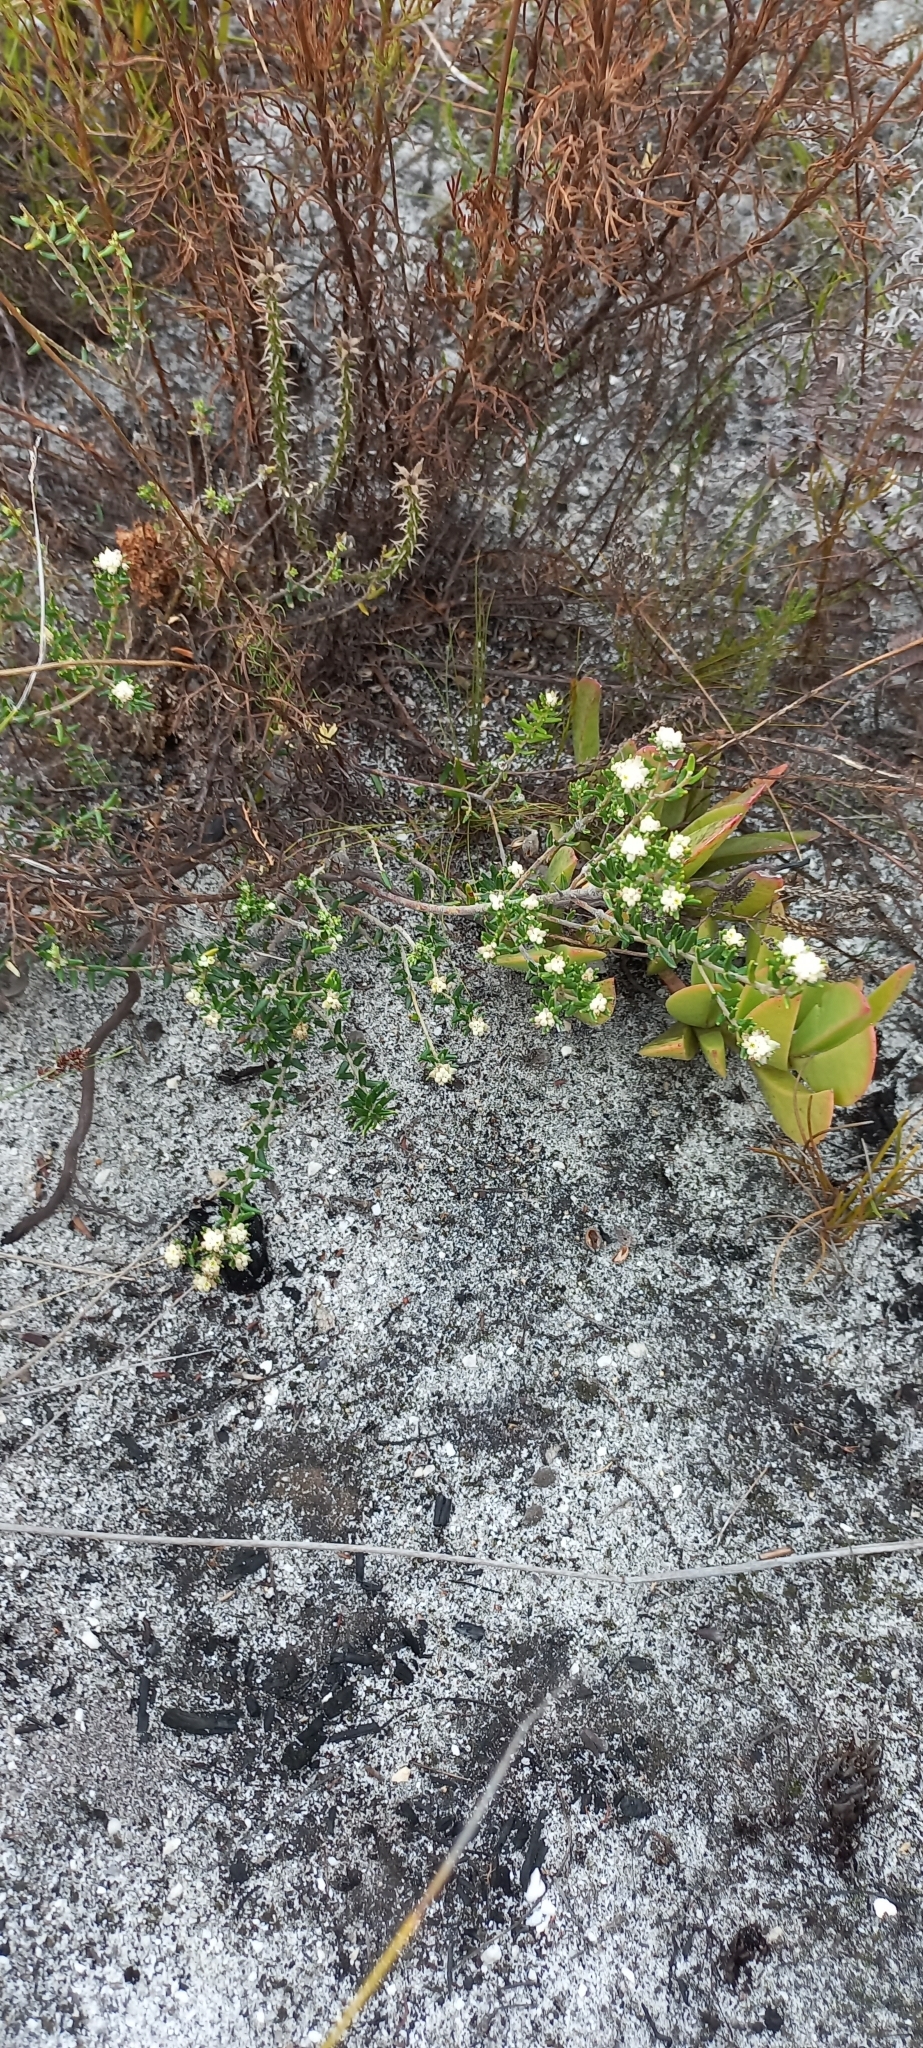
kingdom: Plantae
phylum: Tracheophyta
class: Magnoliopsida
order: Rosales
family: Rhamnaceae
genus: Phylica
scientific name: Phylica lasiocarpa
